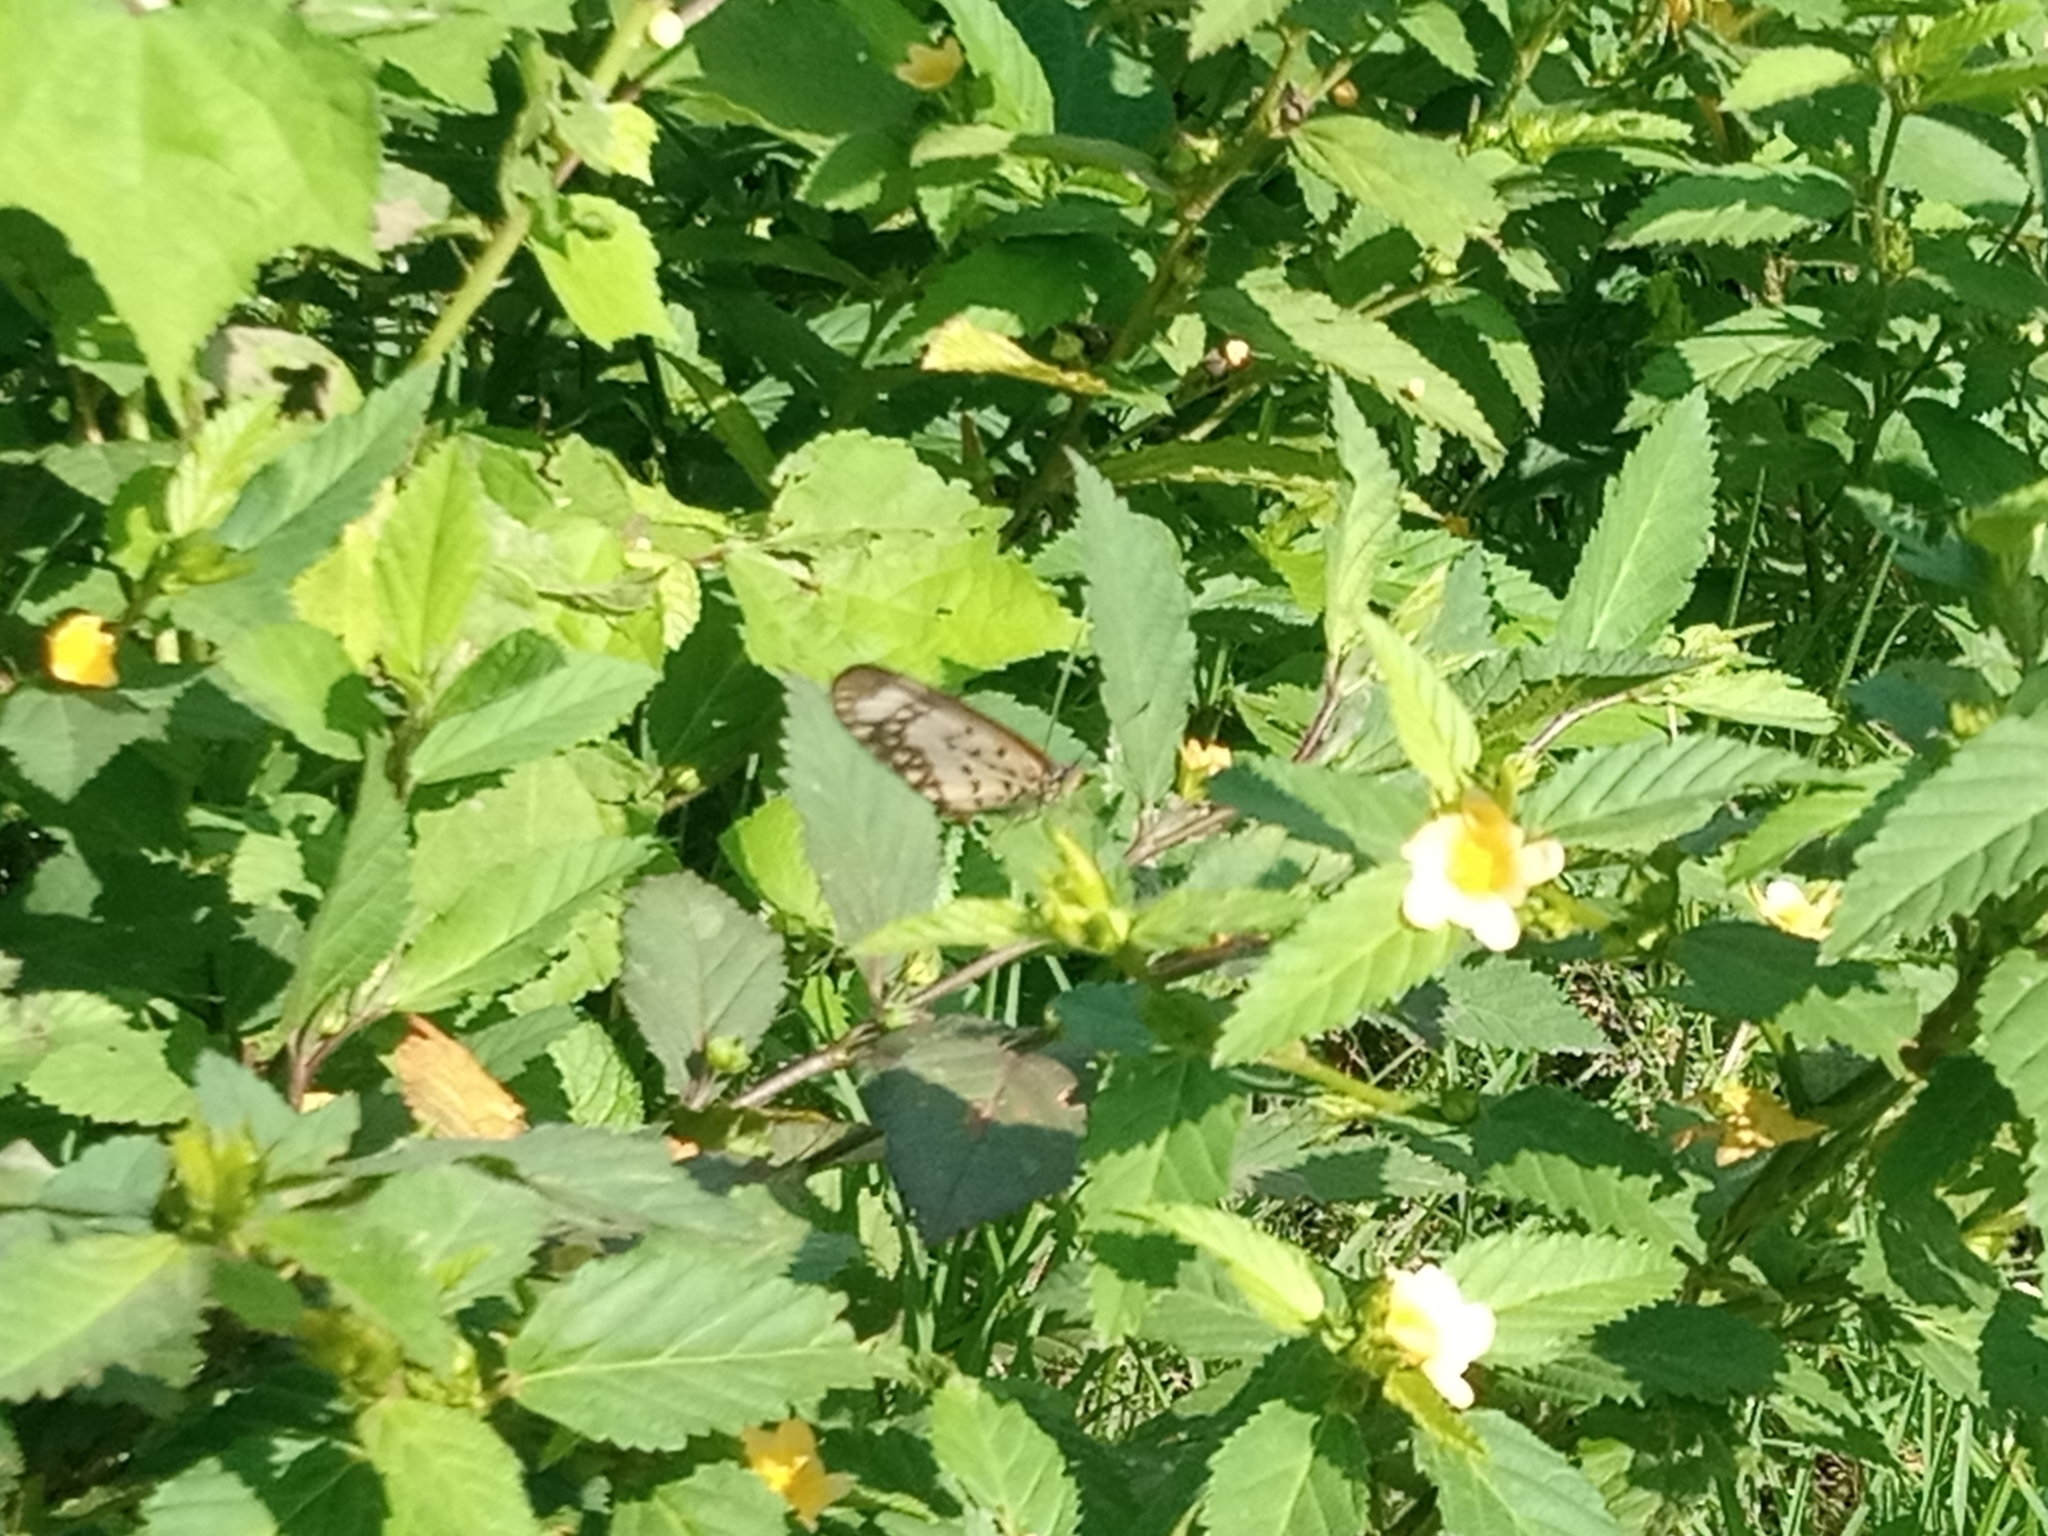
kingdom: Animalia
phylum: Arthropoda
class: Insecta
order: Lepidoptera
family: Nymphalidae
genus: Acraea
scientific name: Acraea Telchinia serena
